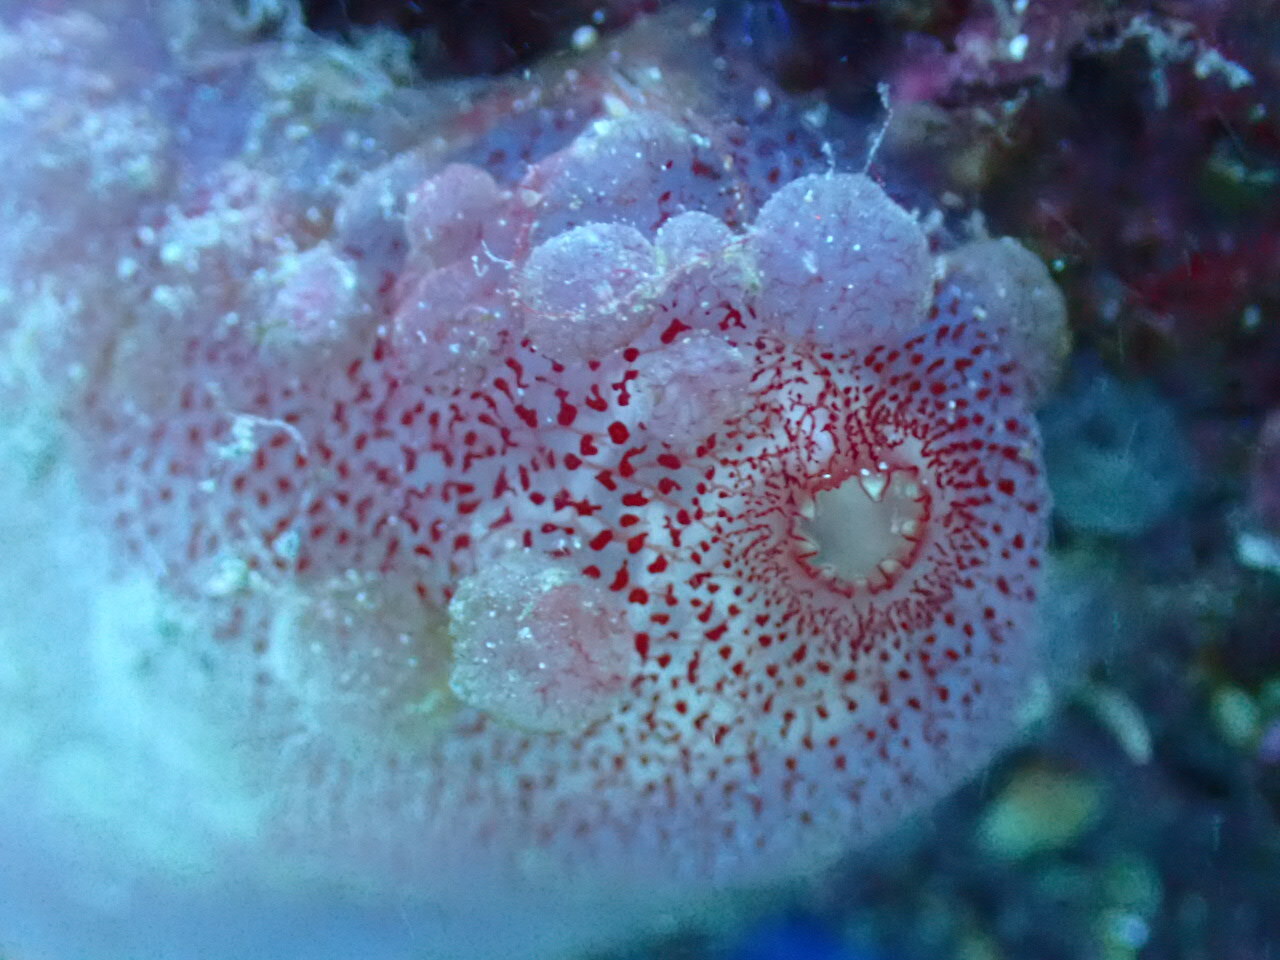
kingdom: Animalia
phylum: Chordata
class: Ascidiacea
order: Phlebobranchia
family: Ascidiidae
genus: Ascidia
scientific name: Ascidia mentula
